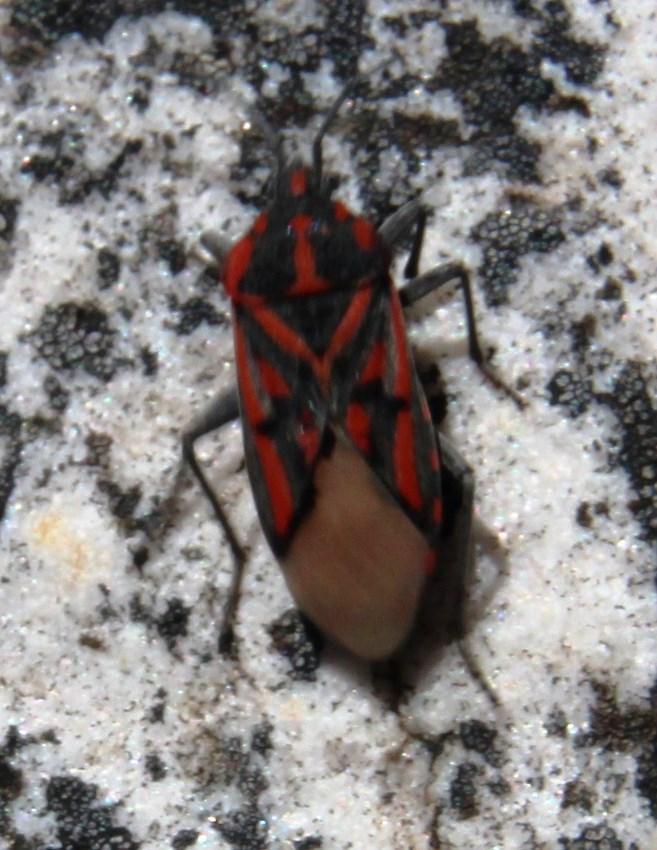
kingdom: Animalia
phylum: Arthropoda
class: Insecta
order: Hemiptera
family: Lygaeidae
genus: Spilostethus
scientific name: Spilostethus crudelis
